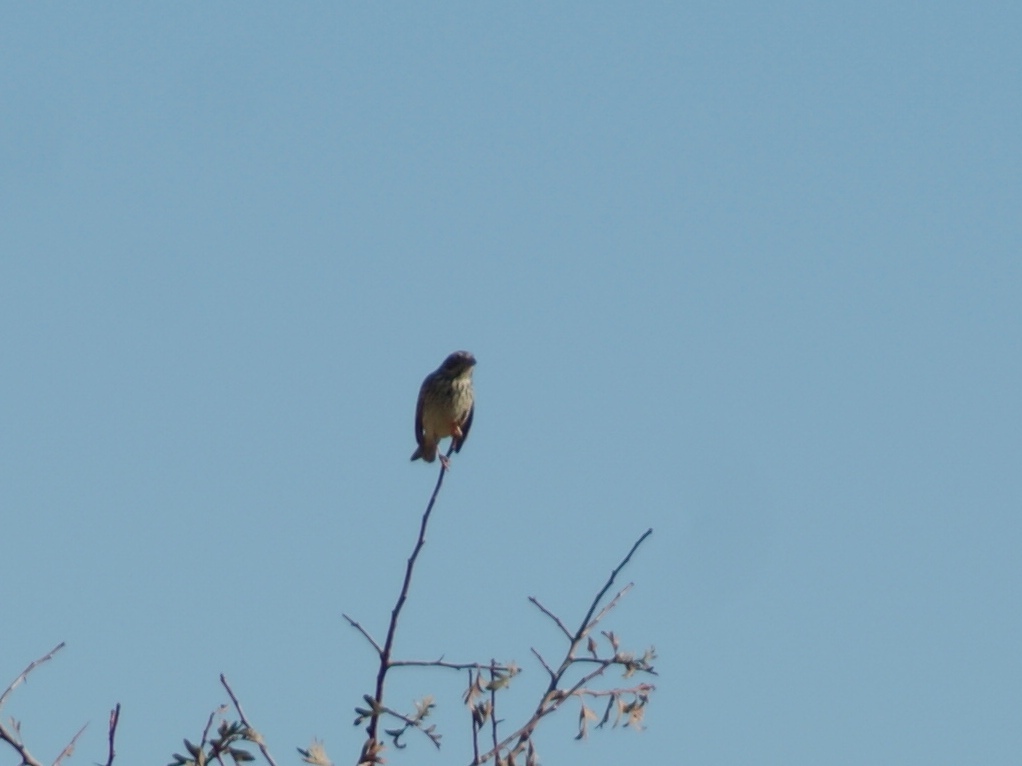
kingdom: Animalia
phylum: Chordata
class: Aves
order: Passeriformes
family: Emberizidae
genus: Emberiza
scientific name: Emberiza calandra
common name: Corn bunting
